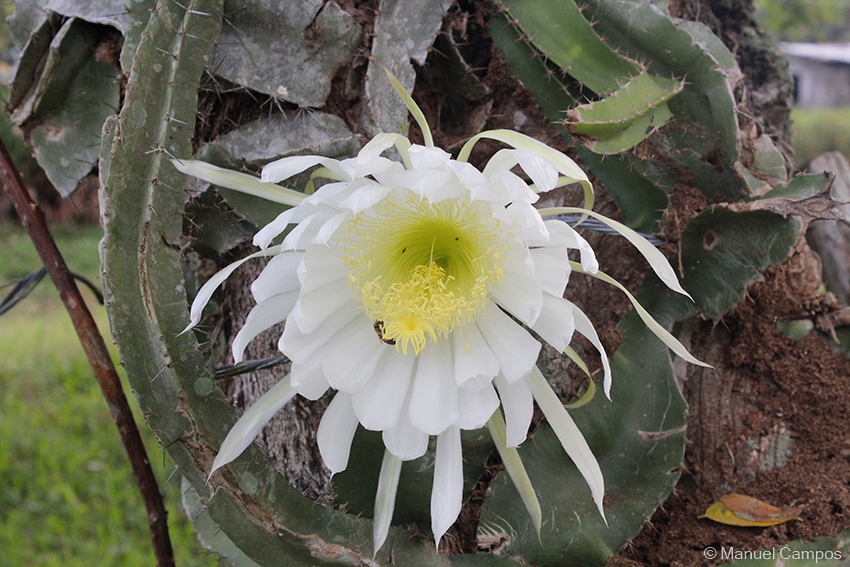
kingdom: Plantae
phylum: Tracheophyta
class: Magnoliopsida
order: Caryophyllales
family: Cactaceae
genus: Deamia
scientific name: Deamia testudo
